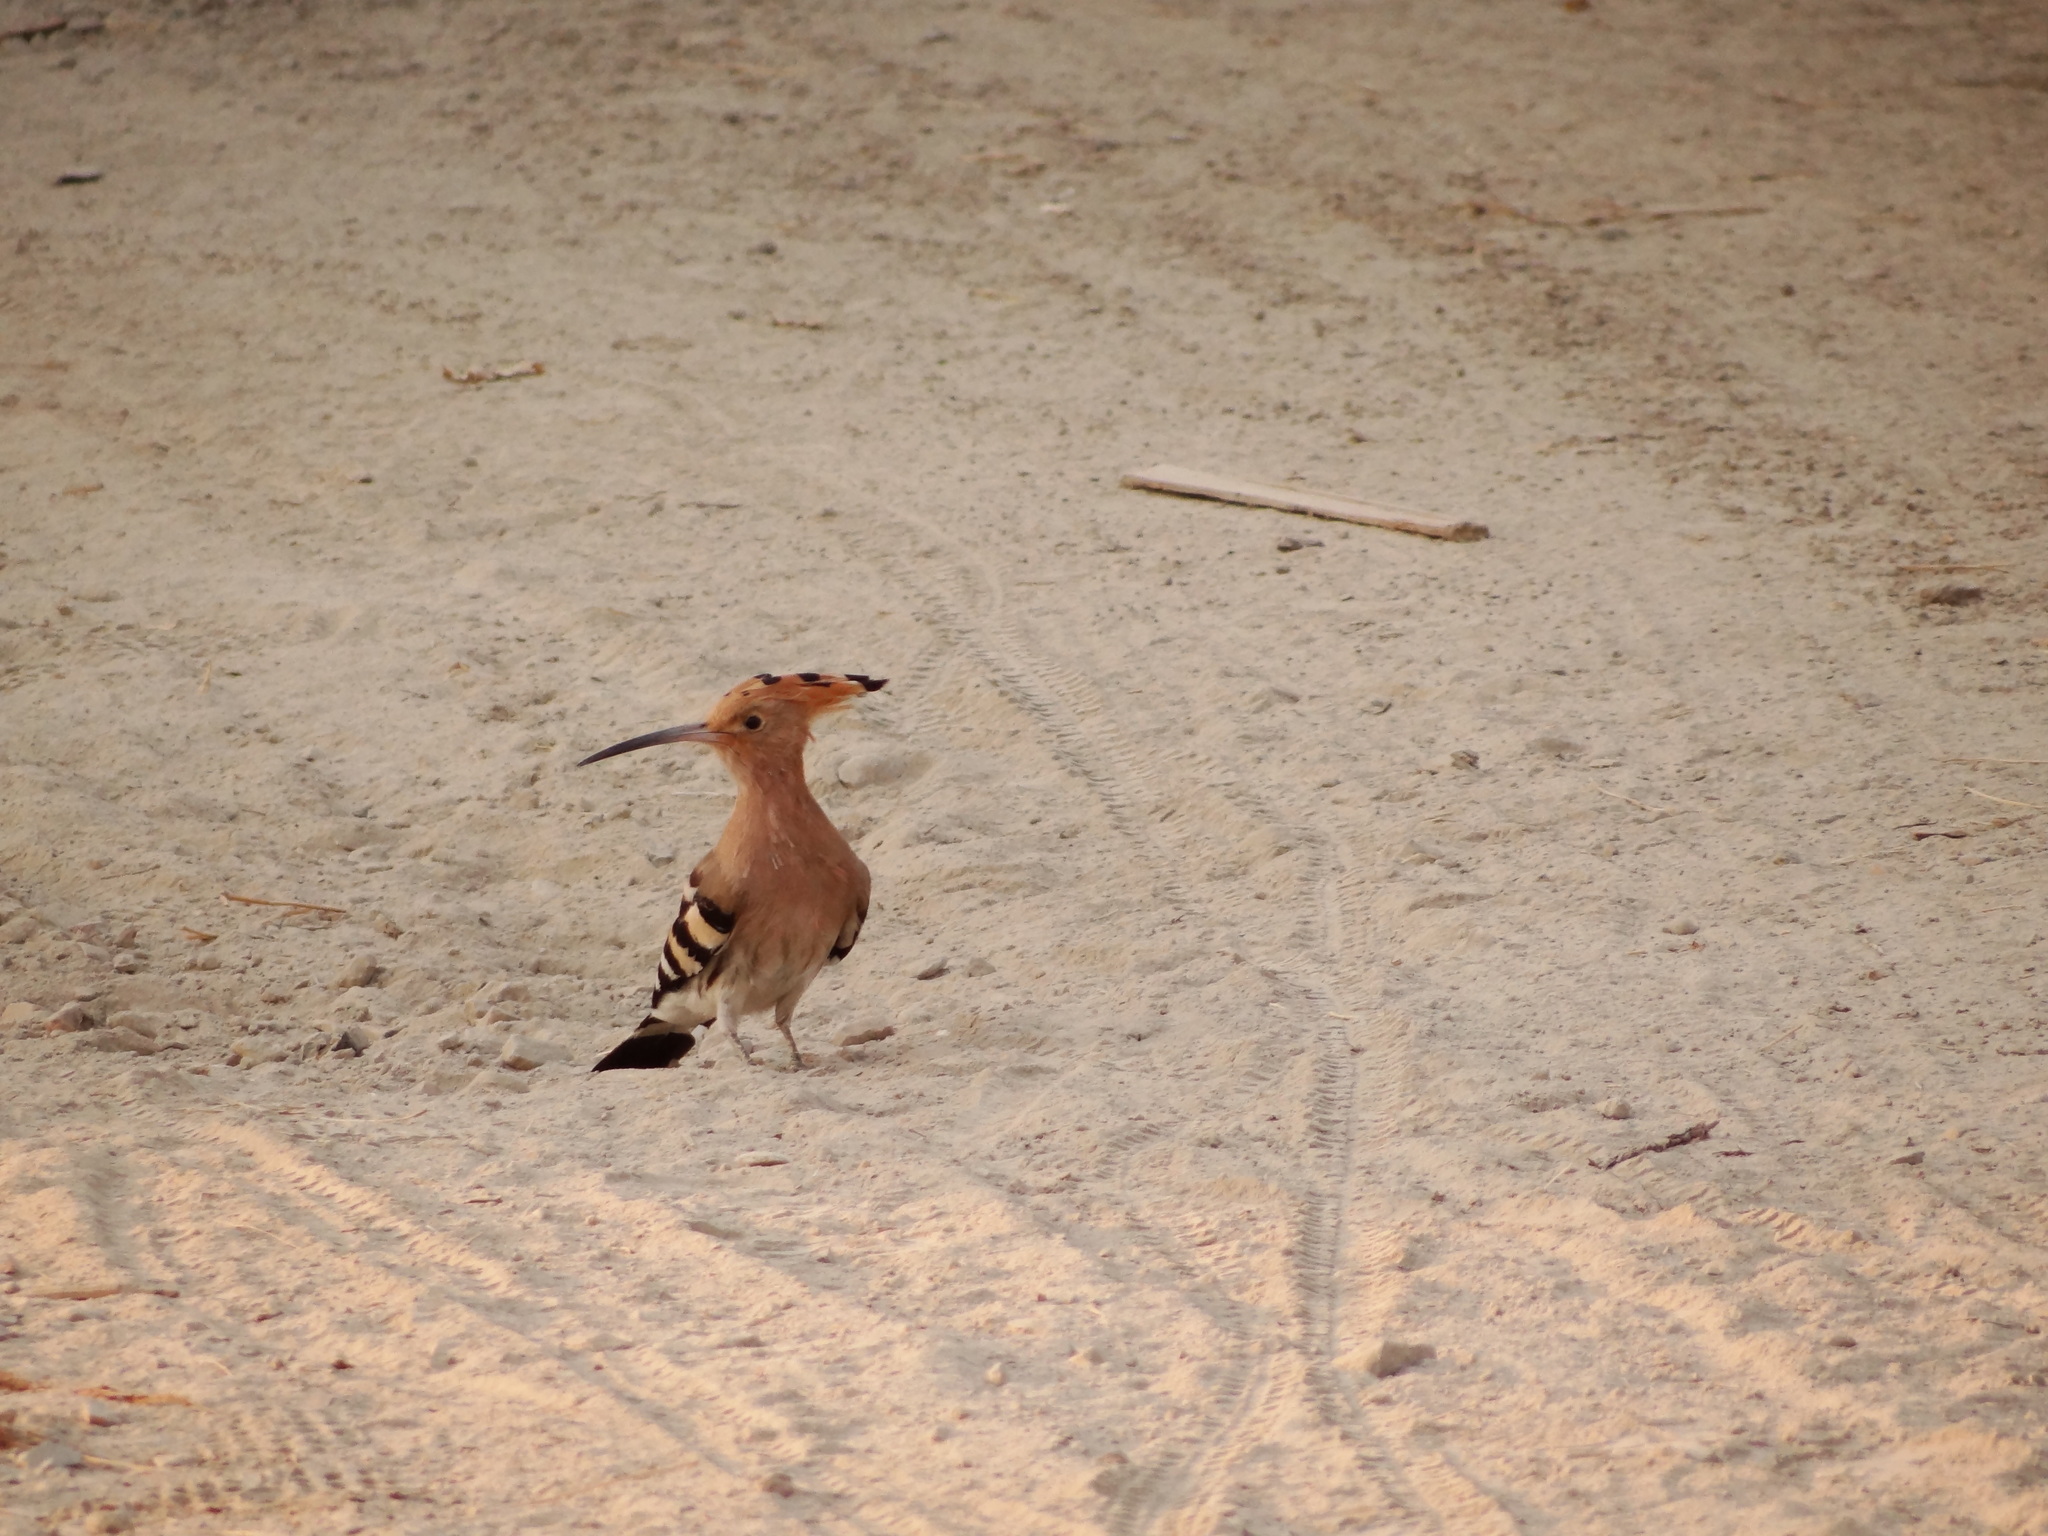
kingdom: Animalia
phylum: Chordata
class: Aves
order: Bucerotiformes
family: Upupidae
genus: Upupa
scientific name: Upupa epops
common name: Eurasian hoopoe
